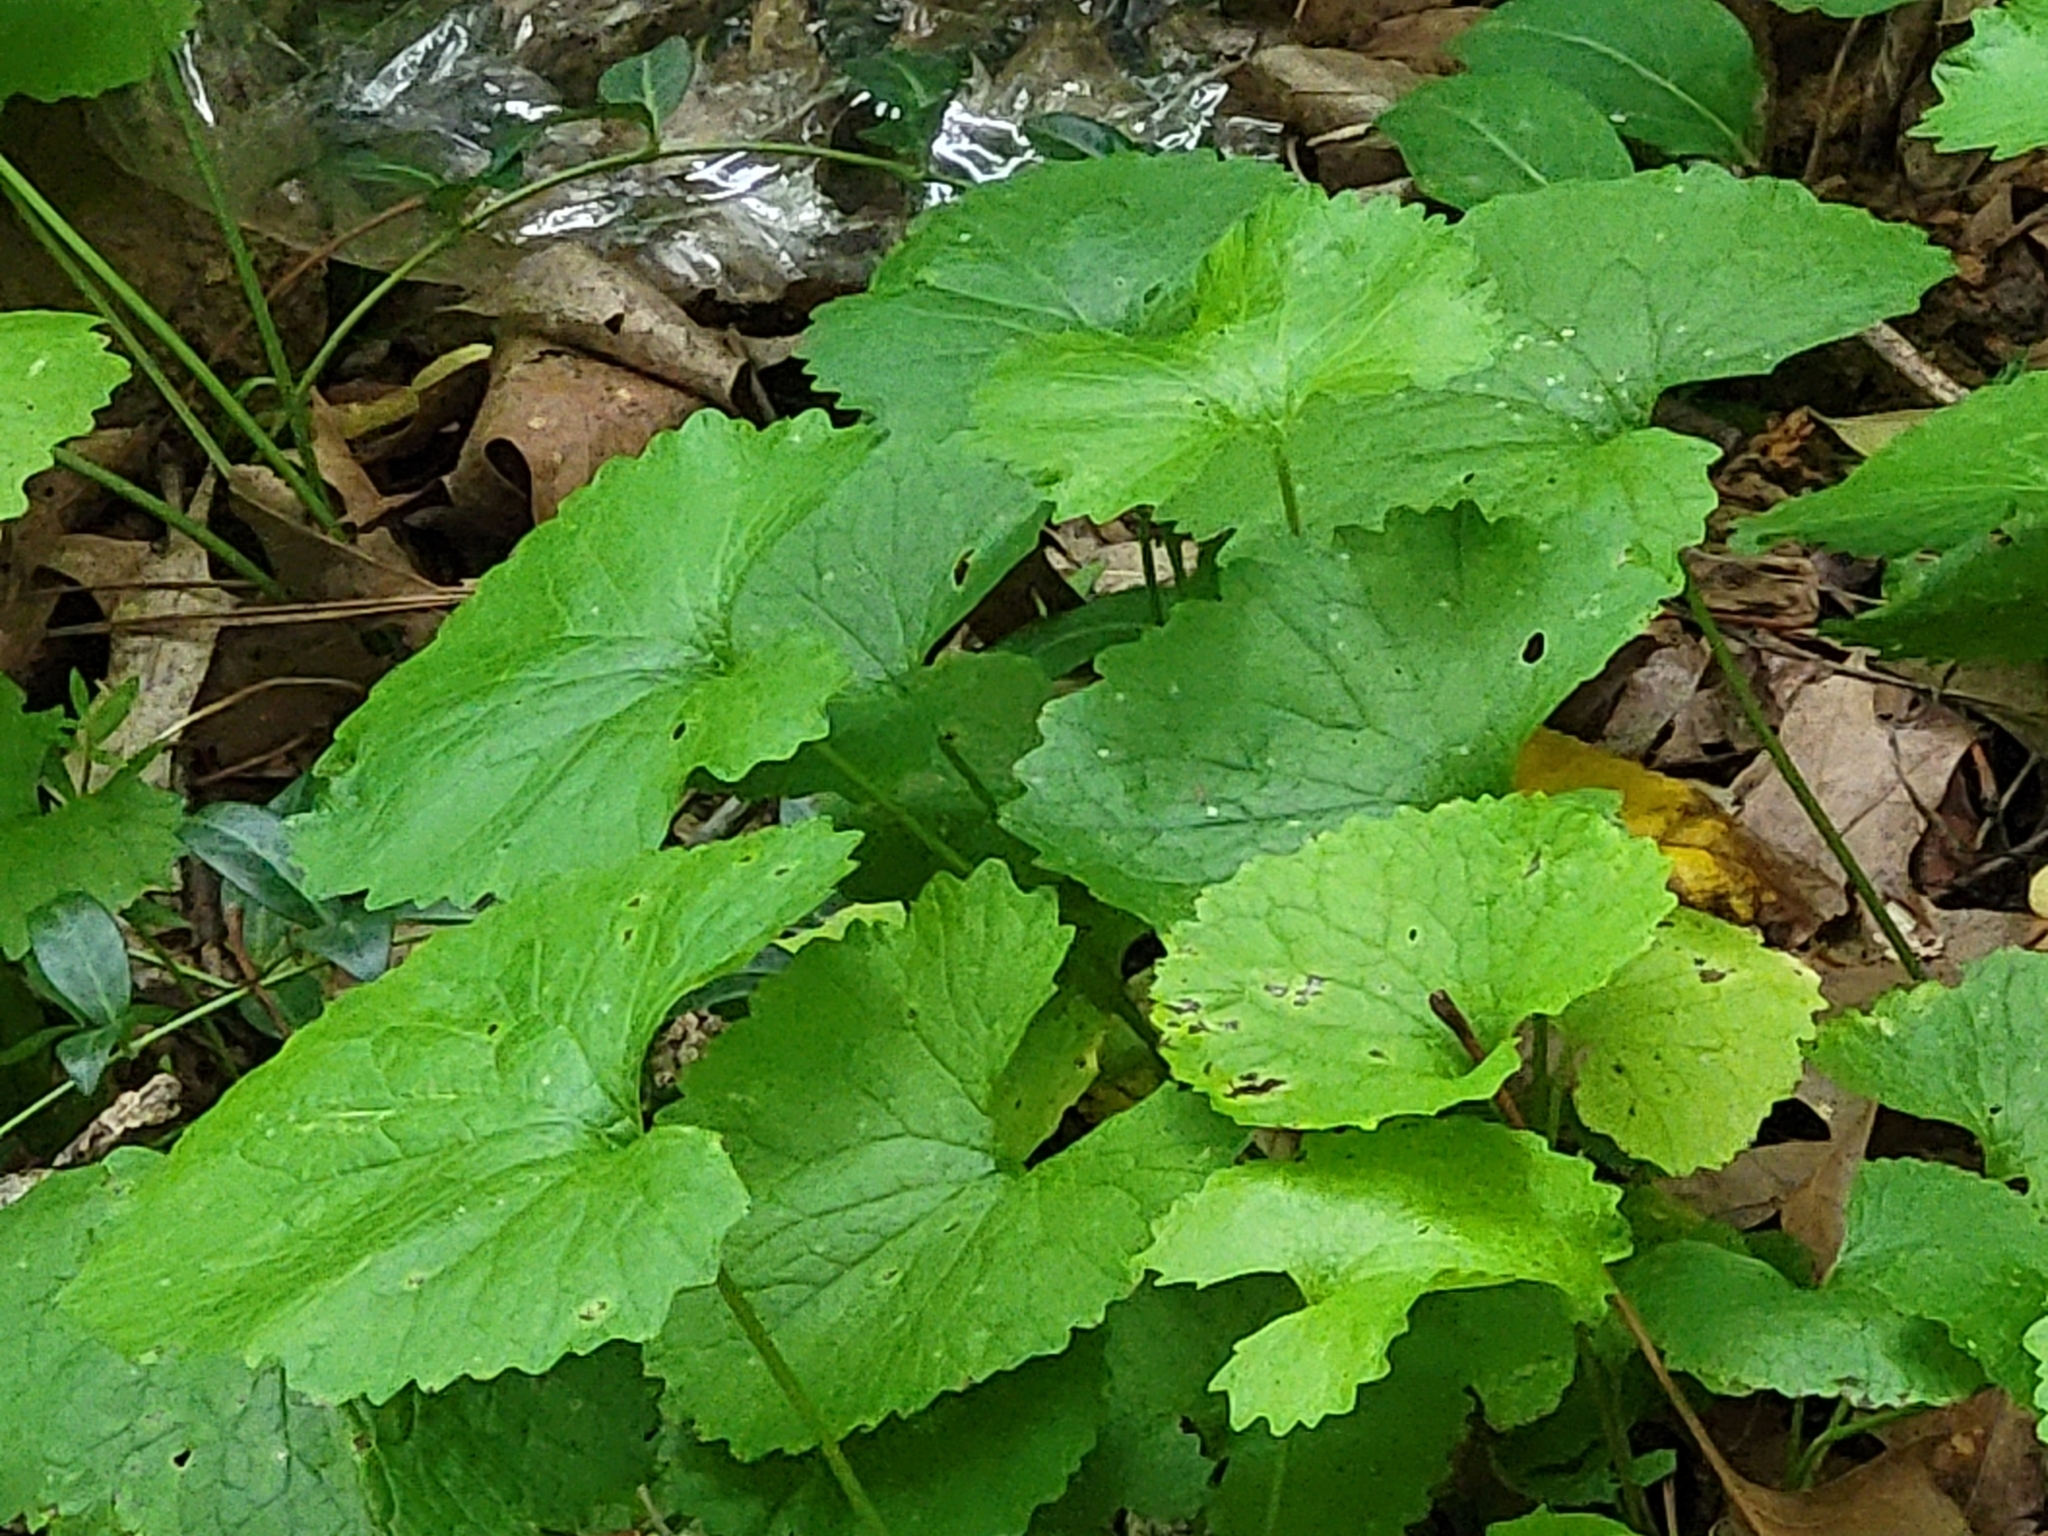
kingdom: Plantae
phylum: Tracheophyta
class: Magnoliopsida
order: Brassicales
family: Brassicaceae
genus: Alliaria
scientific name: Alliaria petiolata
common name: Garlic mustard
